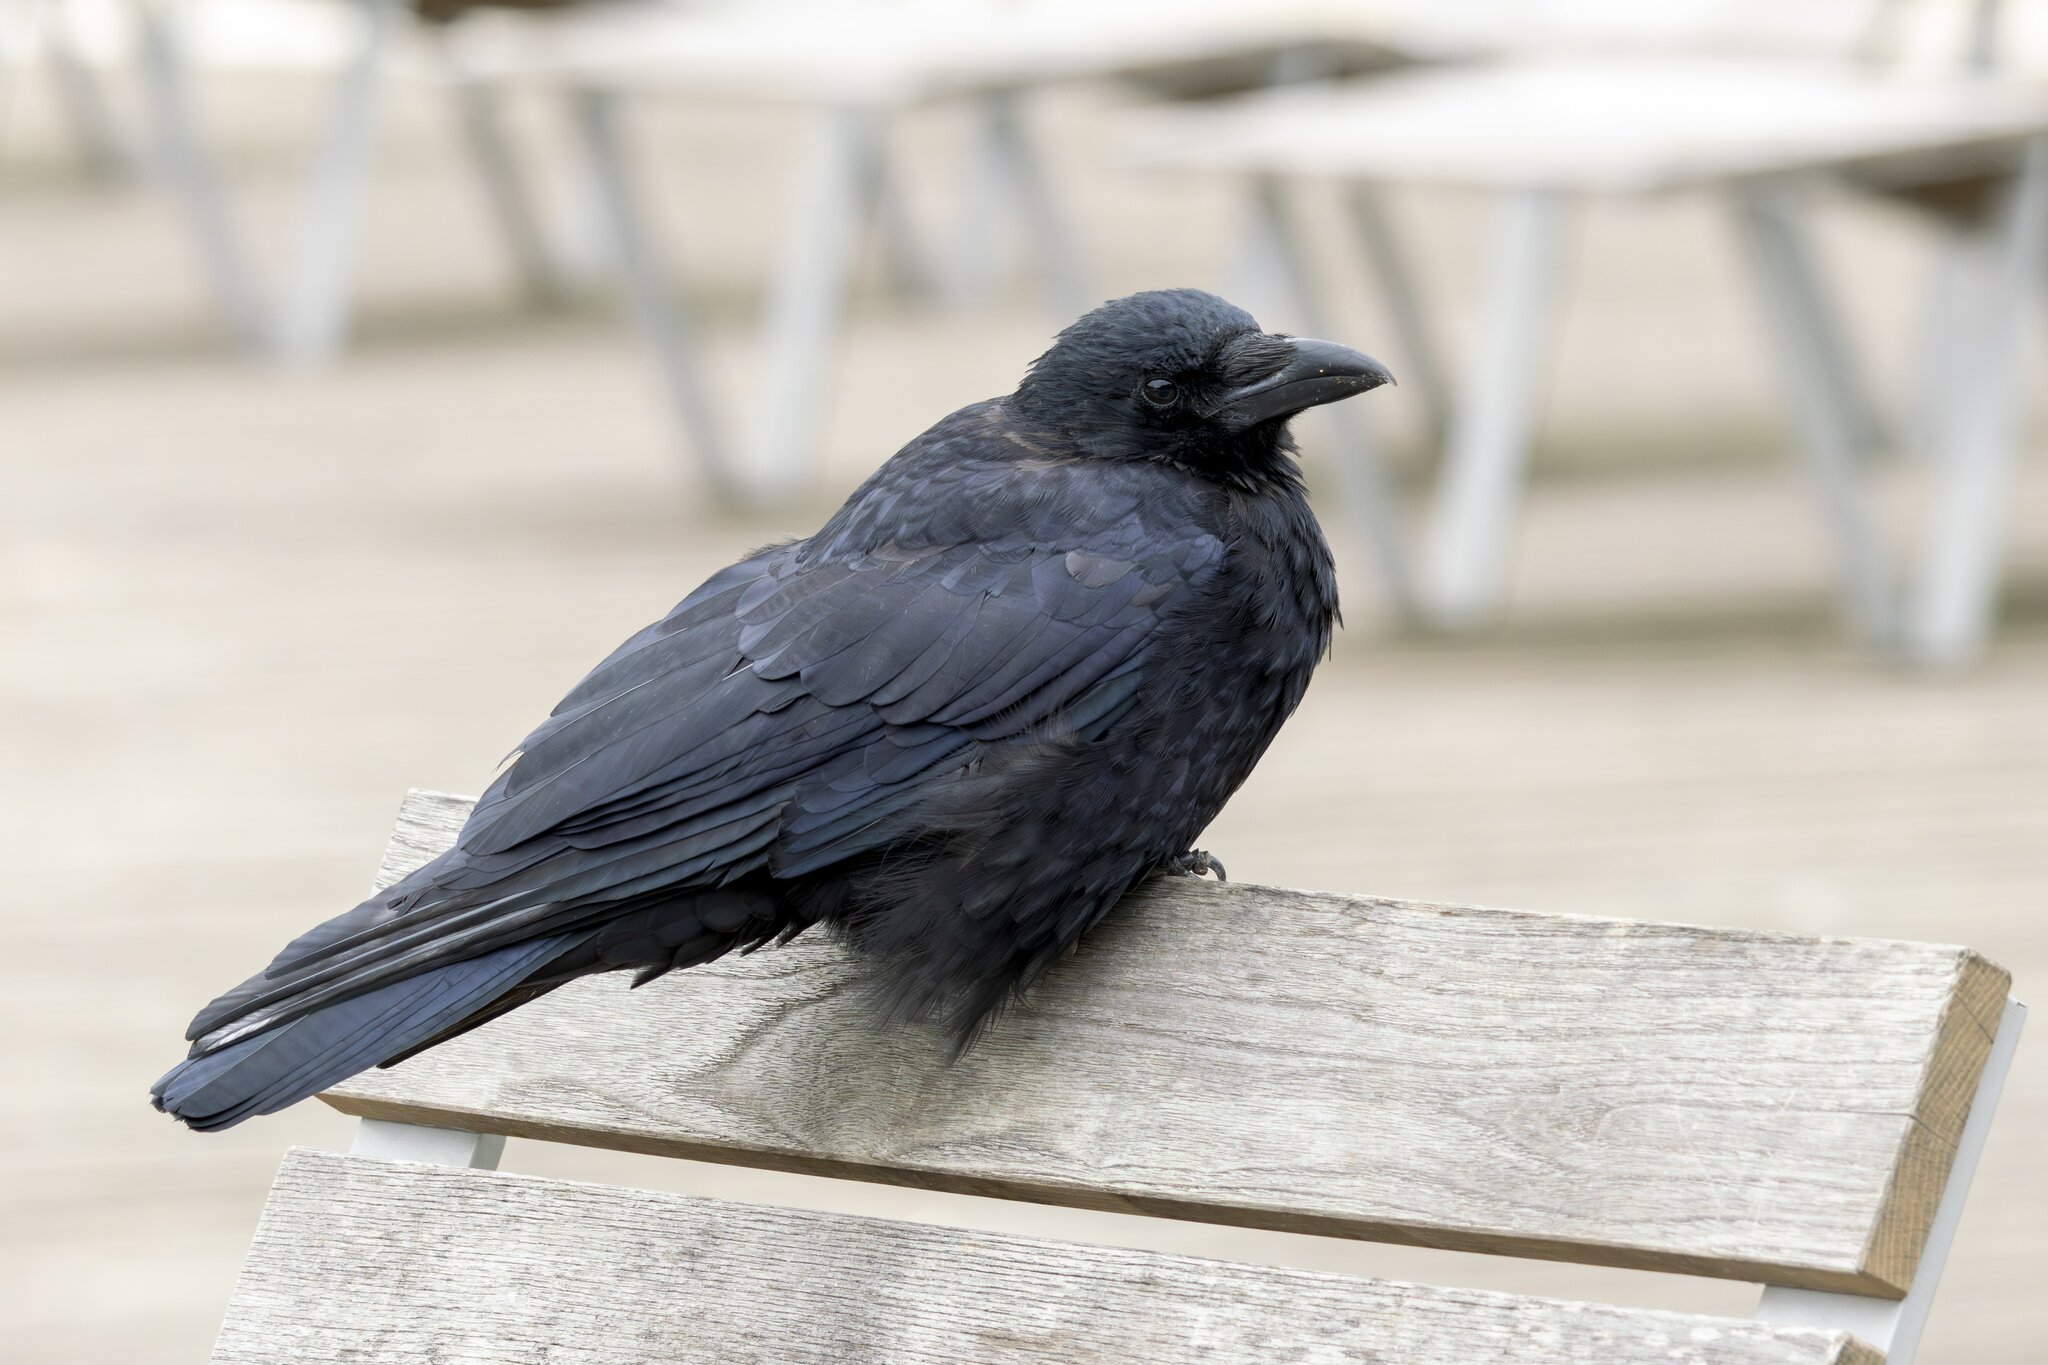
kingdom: Animalia
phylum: Chordata
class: Aves
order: Passeriformes
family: Corvidae
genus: Corvus
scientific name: Corvus corone
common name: Carrion crow
